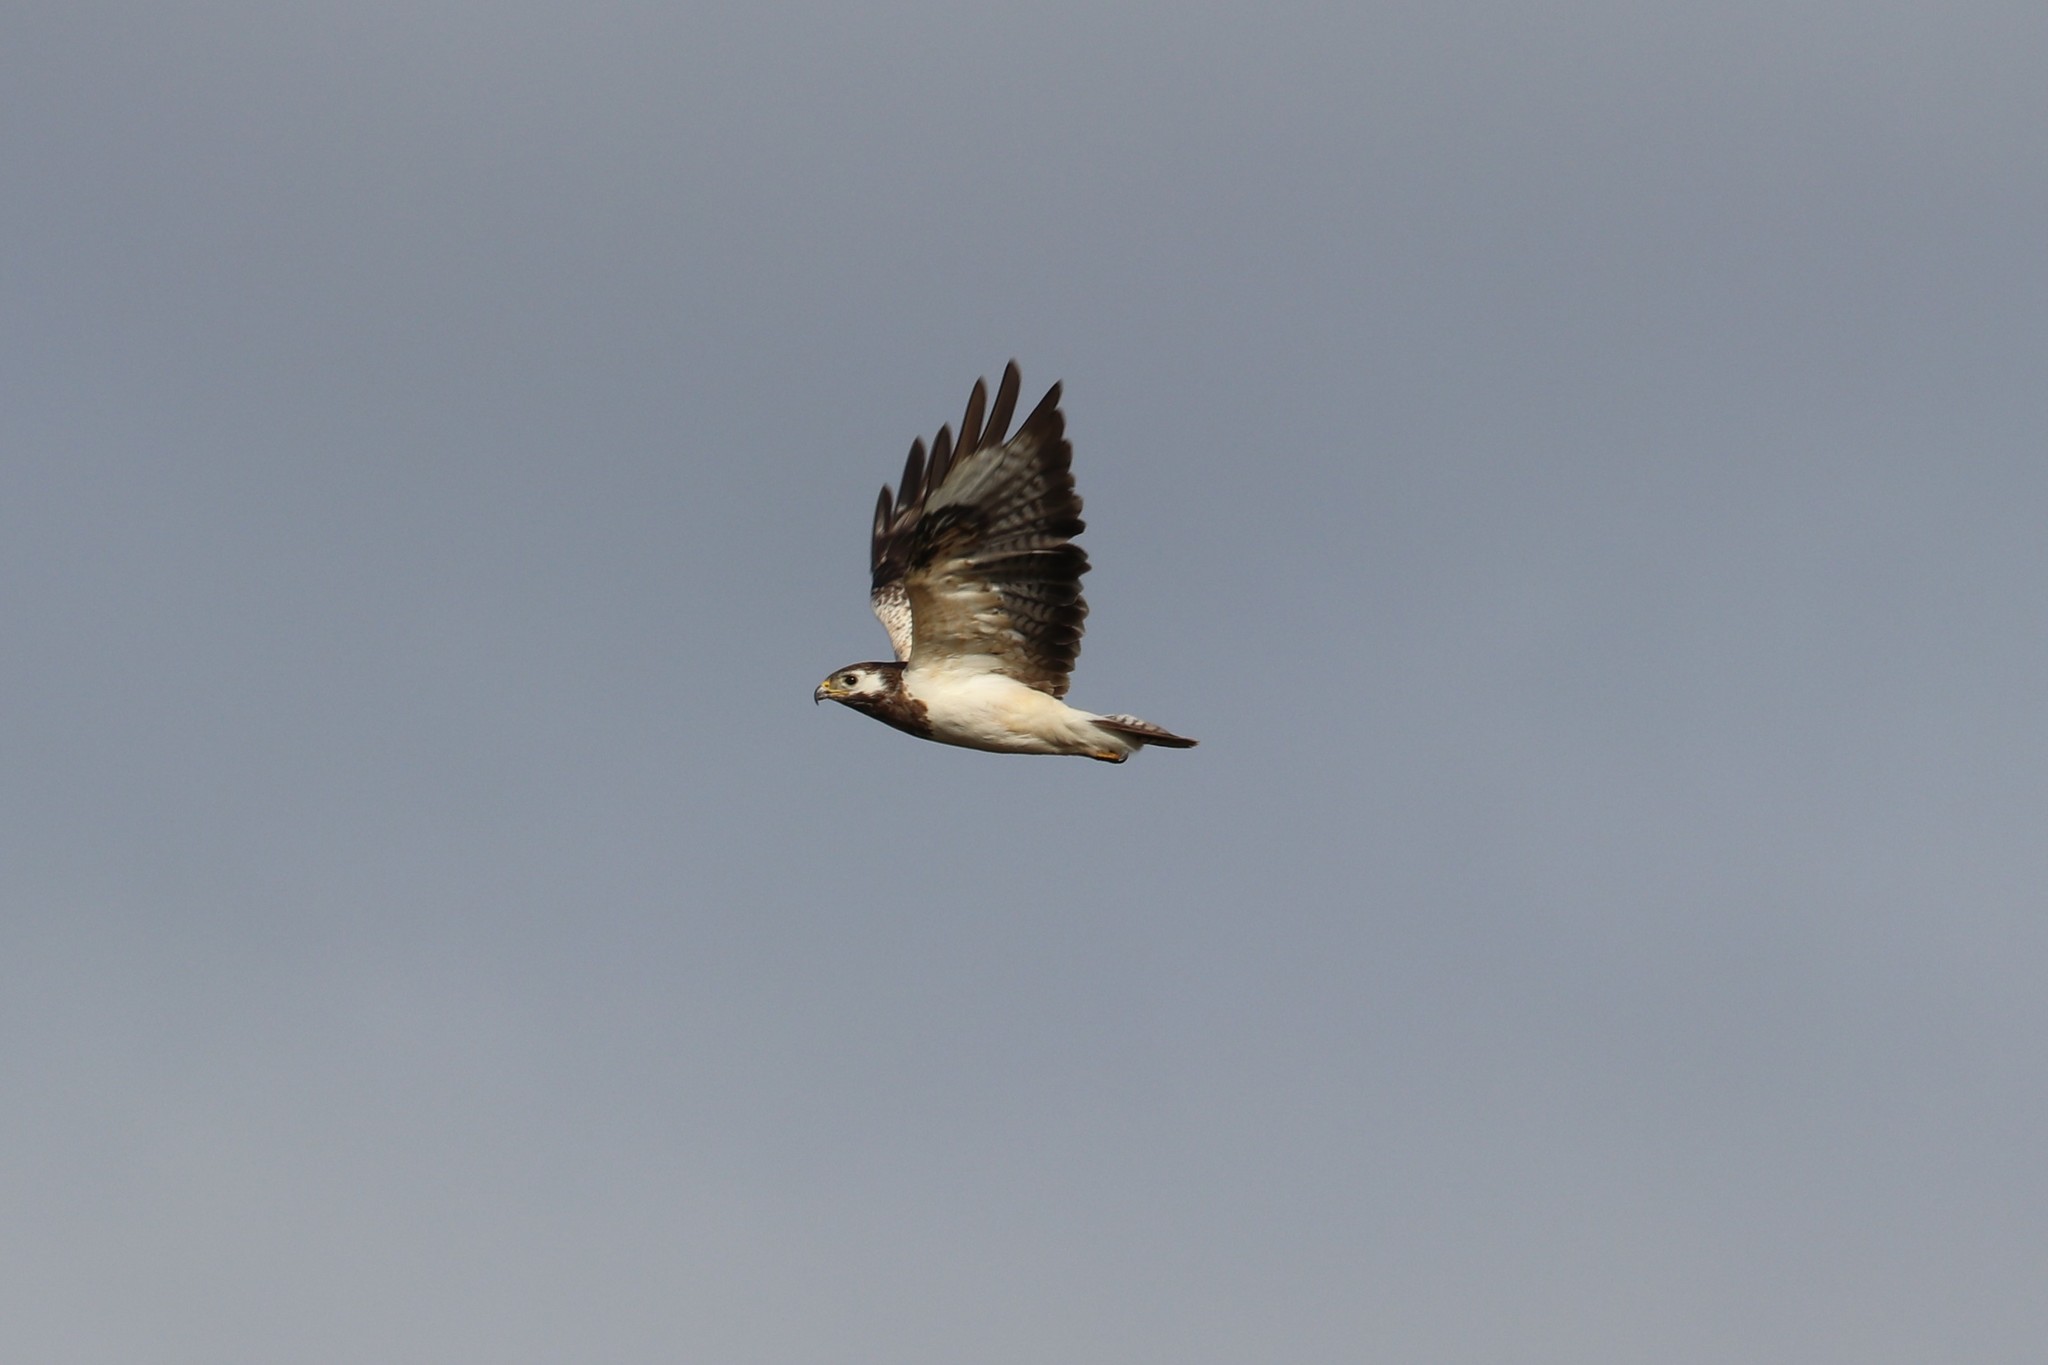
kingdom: Animalia
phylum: Chordata
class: Aves
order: Accipitriformes
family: Accipitridae
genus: Buteo
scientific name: Buteo buteo
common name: Common buzzard
